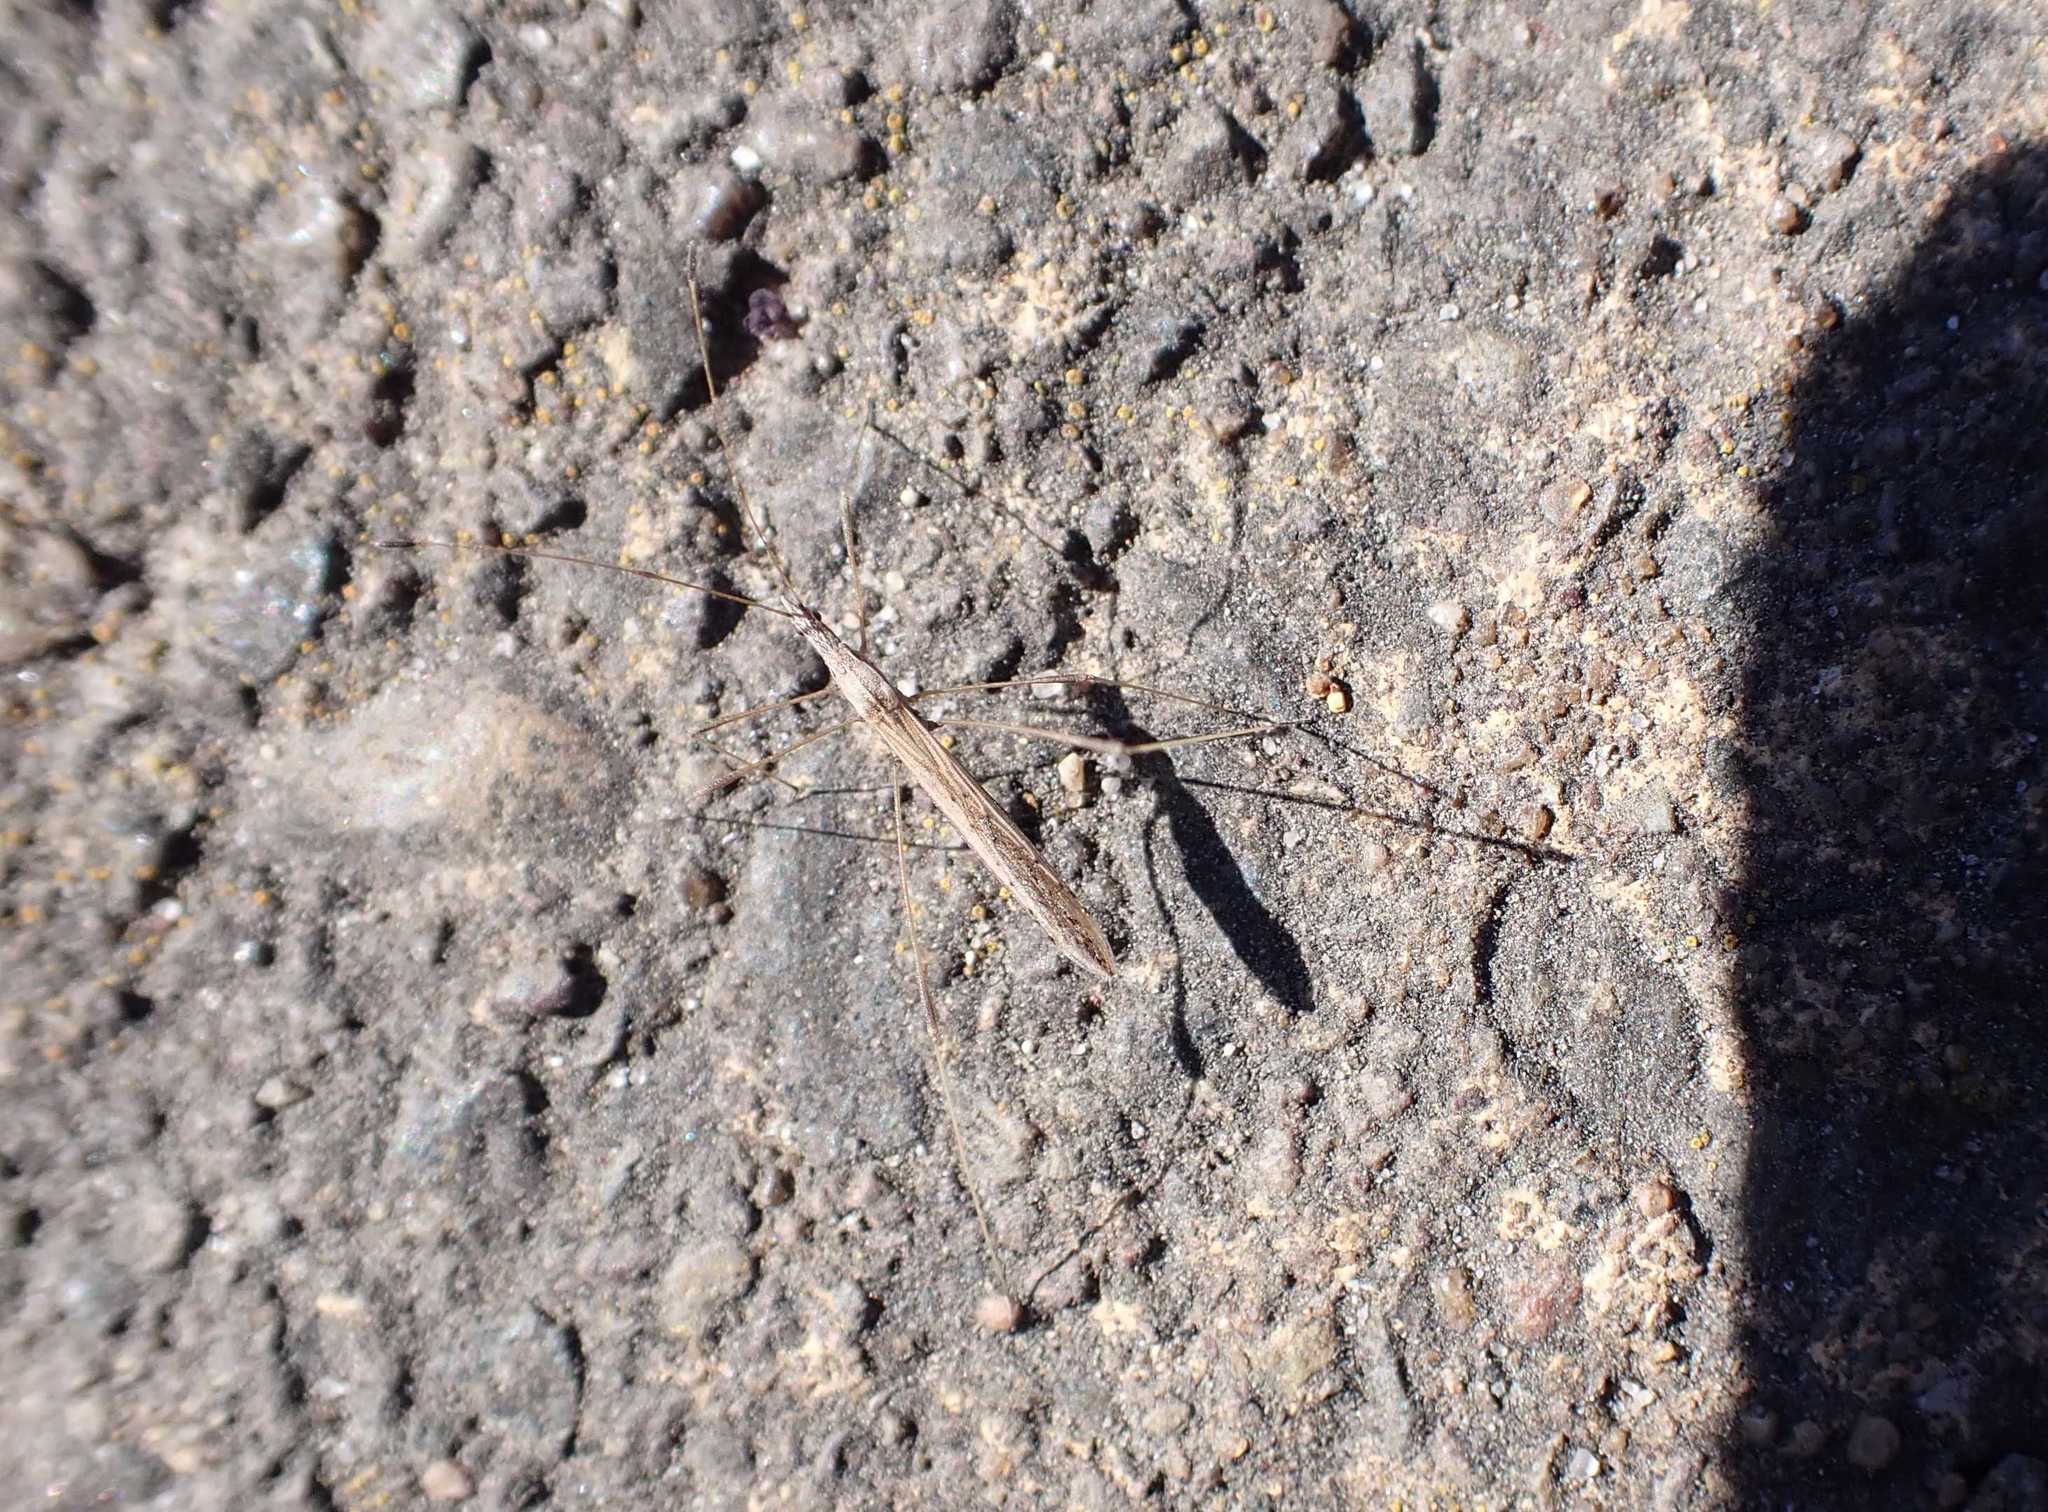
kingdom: Animalia
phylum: Arthropoda
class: Insecta
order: Hemiptera
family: Berytidae
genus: Neides
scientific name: Neides tipularius
